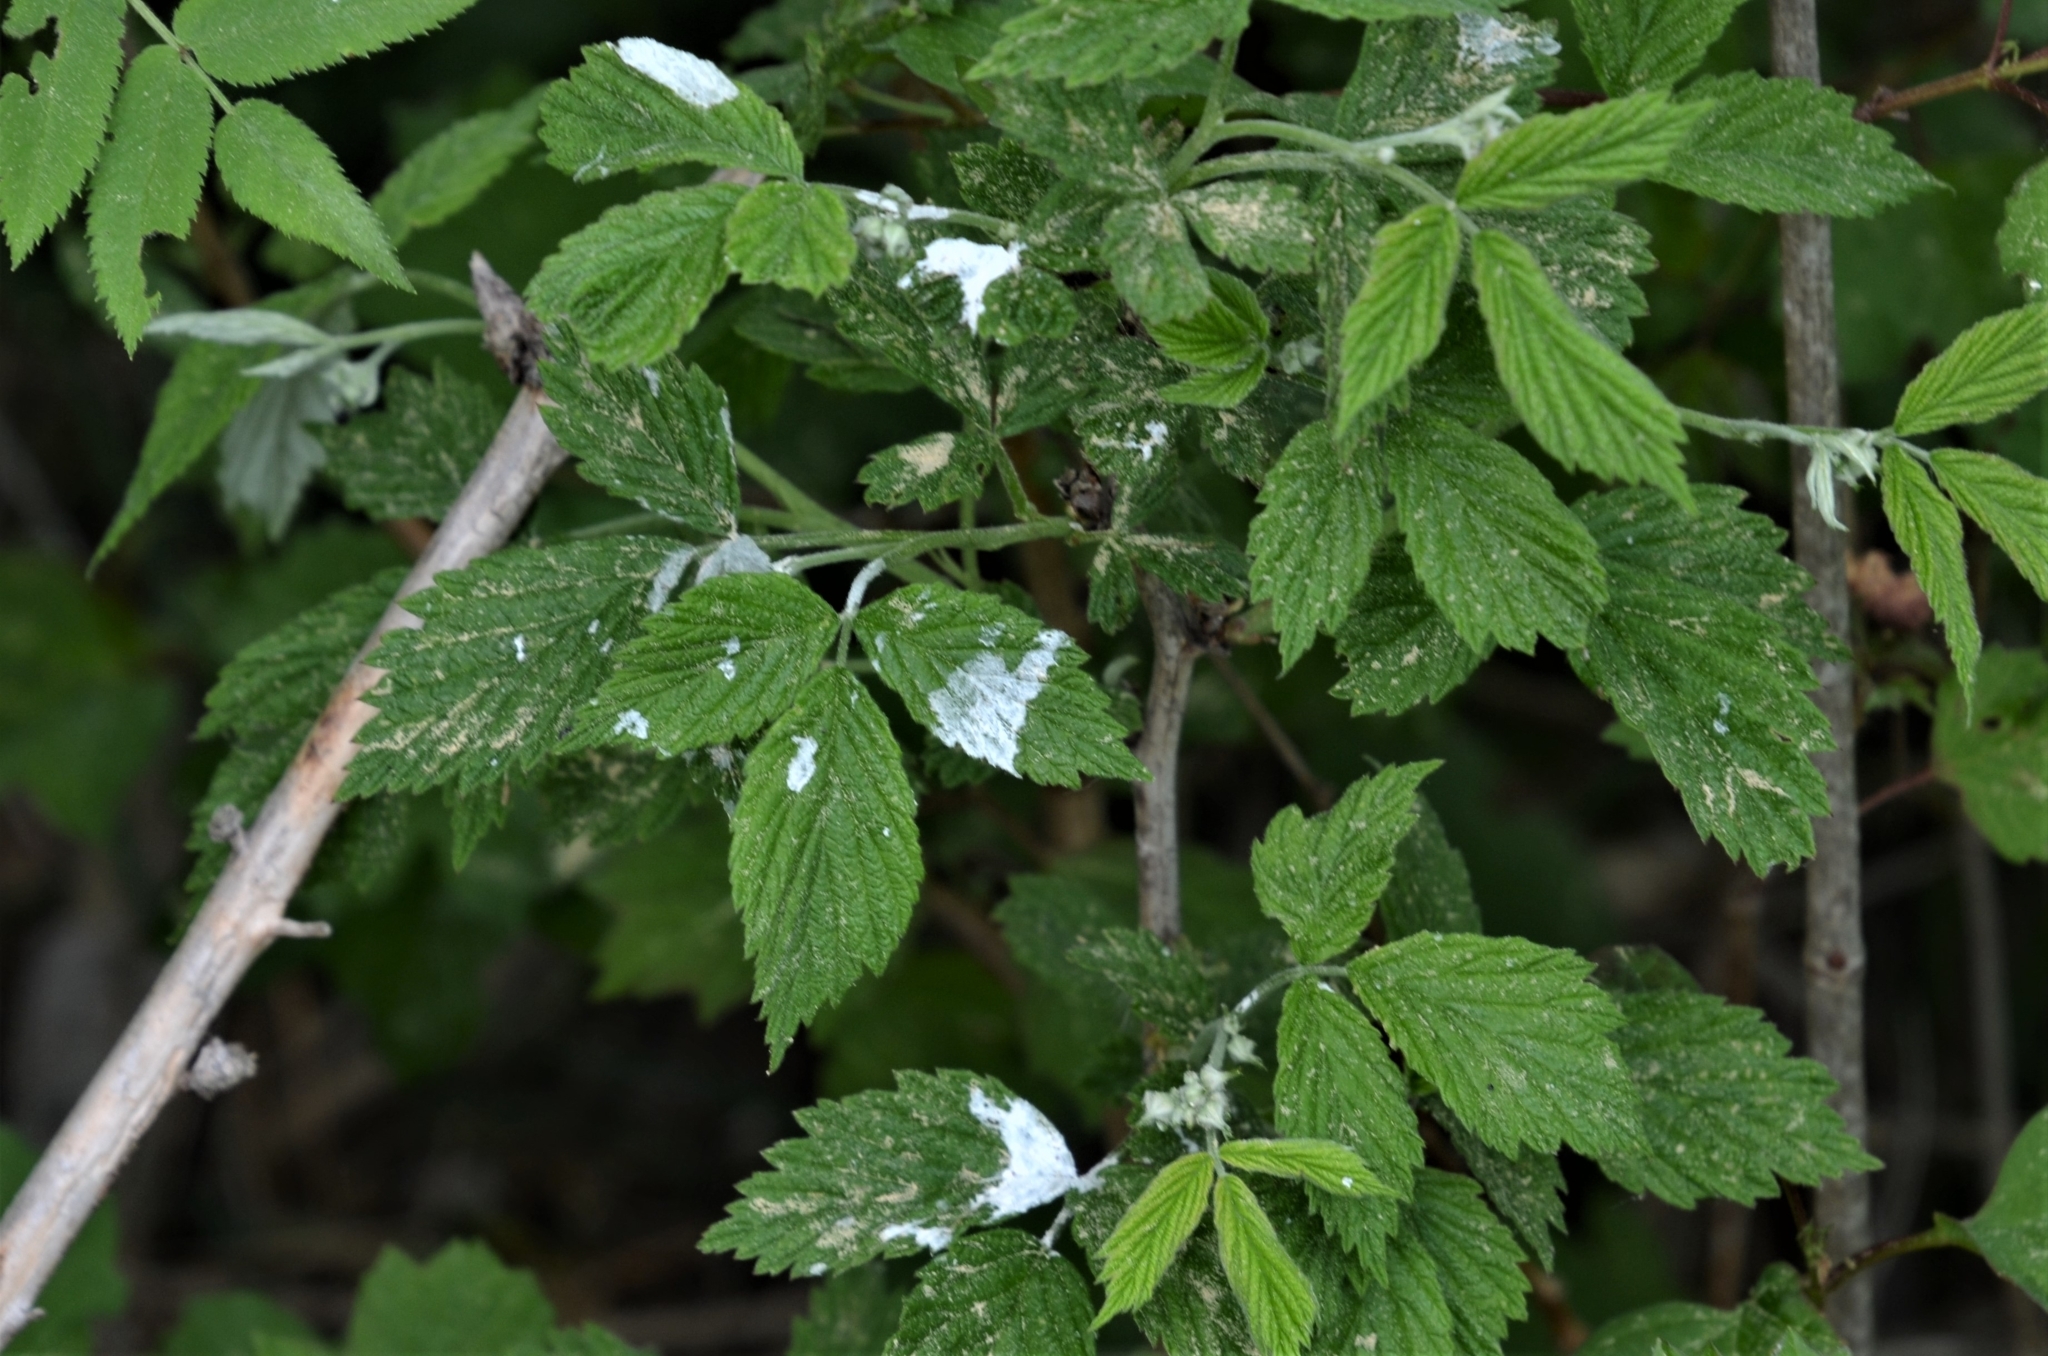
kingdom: Animalia
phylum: Chordata
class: Aves
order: Falconiformes
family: Falconidae
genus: Falco
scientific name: Falco tinnunculus
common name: Common kestrel
